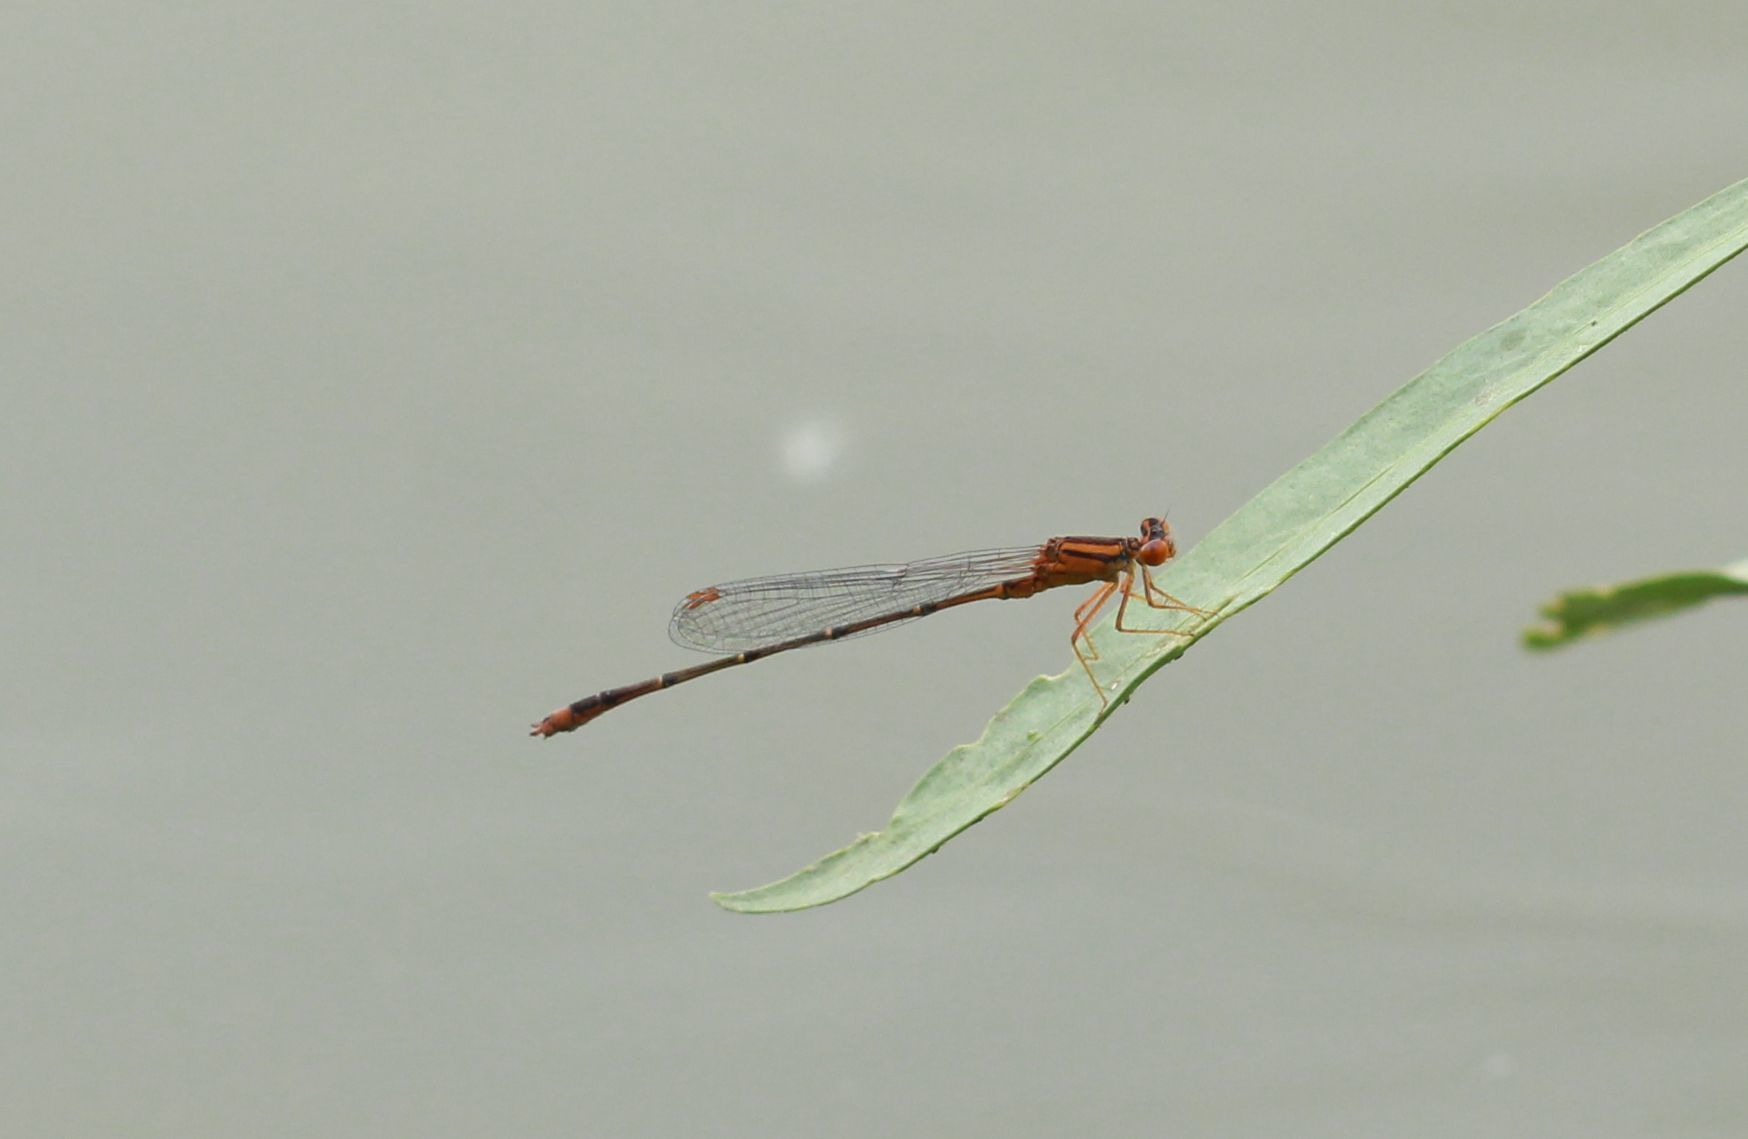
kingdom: Animalia
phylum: Arthropoda
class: Insecta
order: Odonata
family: Coenagrionidae
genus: Enallagma
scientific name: Enallagma signatum
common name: Orange bluet
